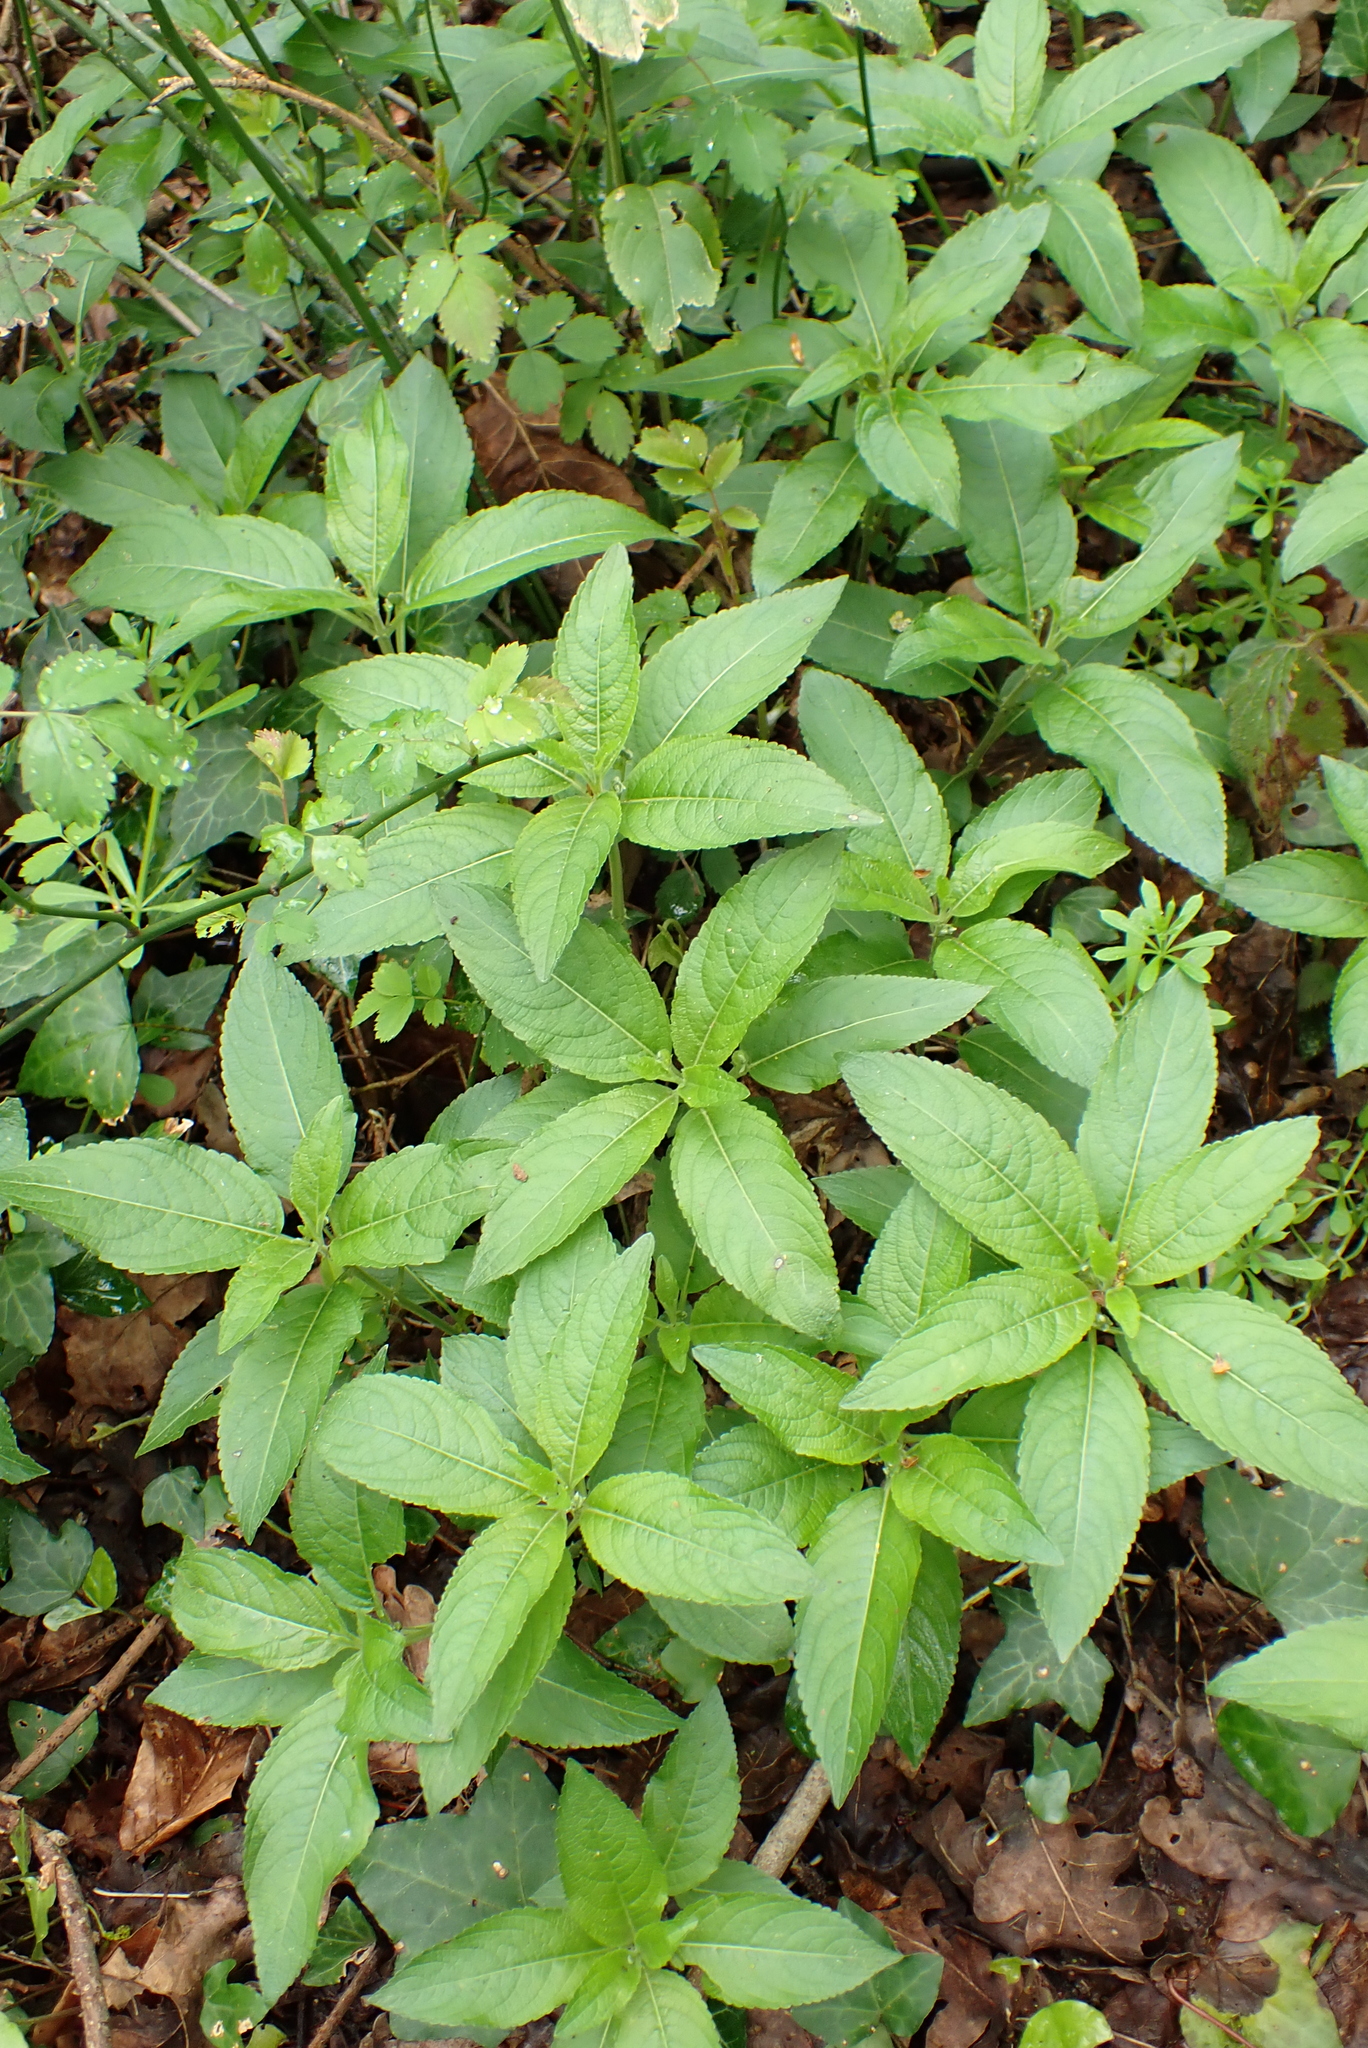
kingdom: Plantae
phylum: Tracheophyta
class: Magnoliopsida
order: Malpighiales
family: Euphorbiaceae
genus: Mercurialis
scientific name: Mercurialis perennis
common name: Dog mercury
